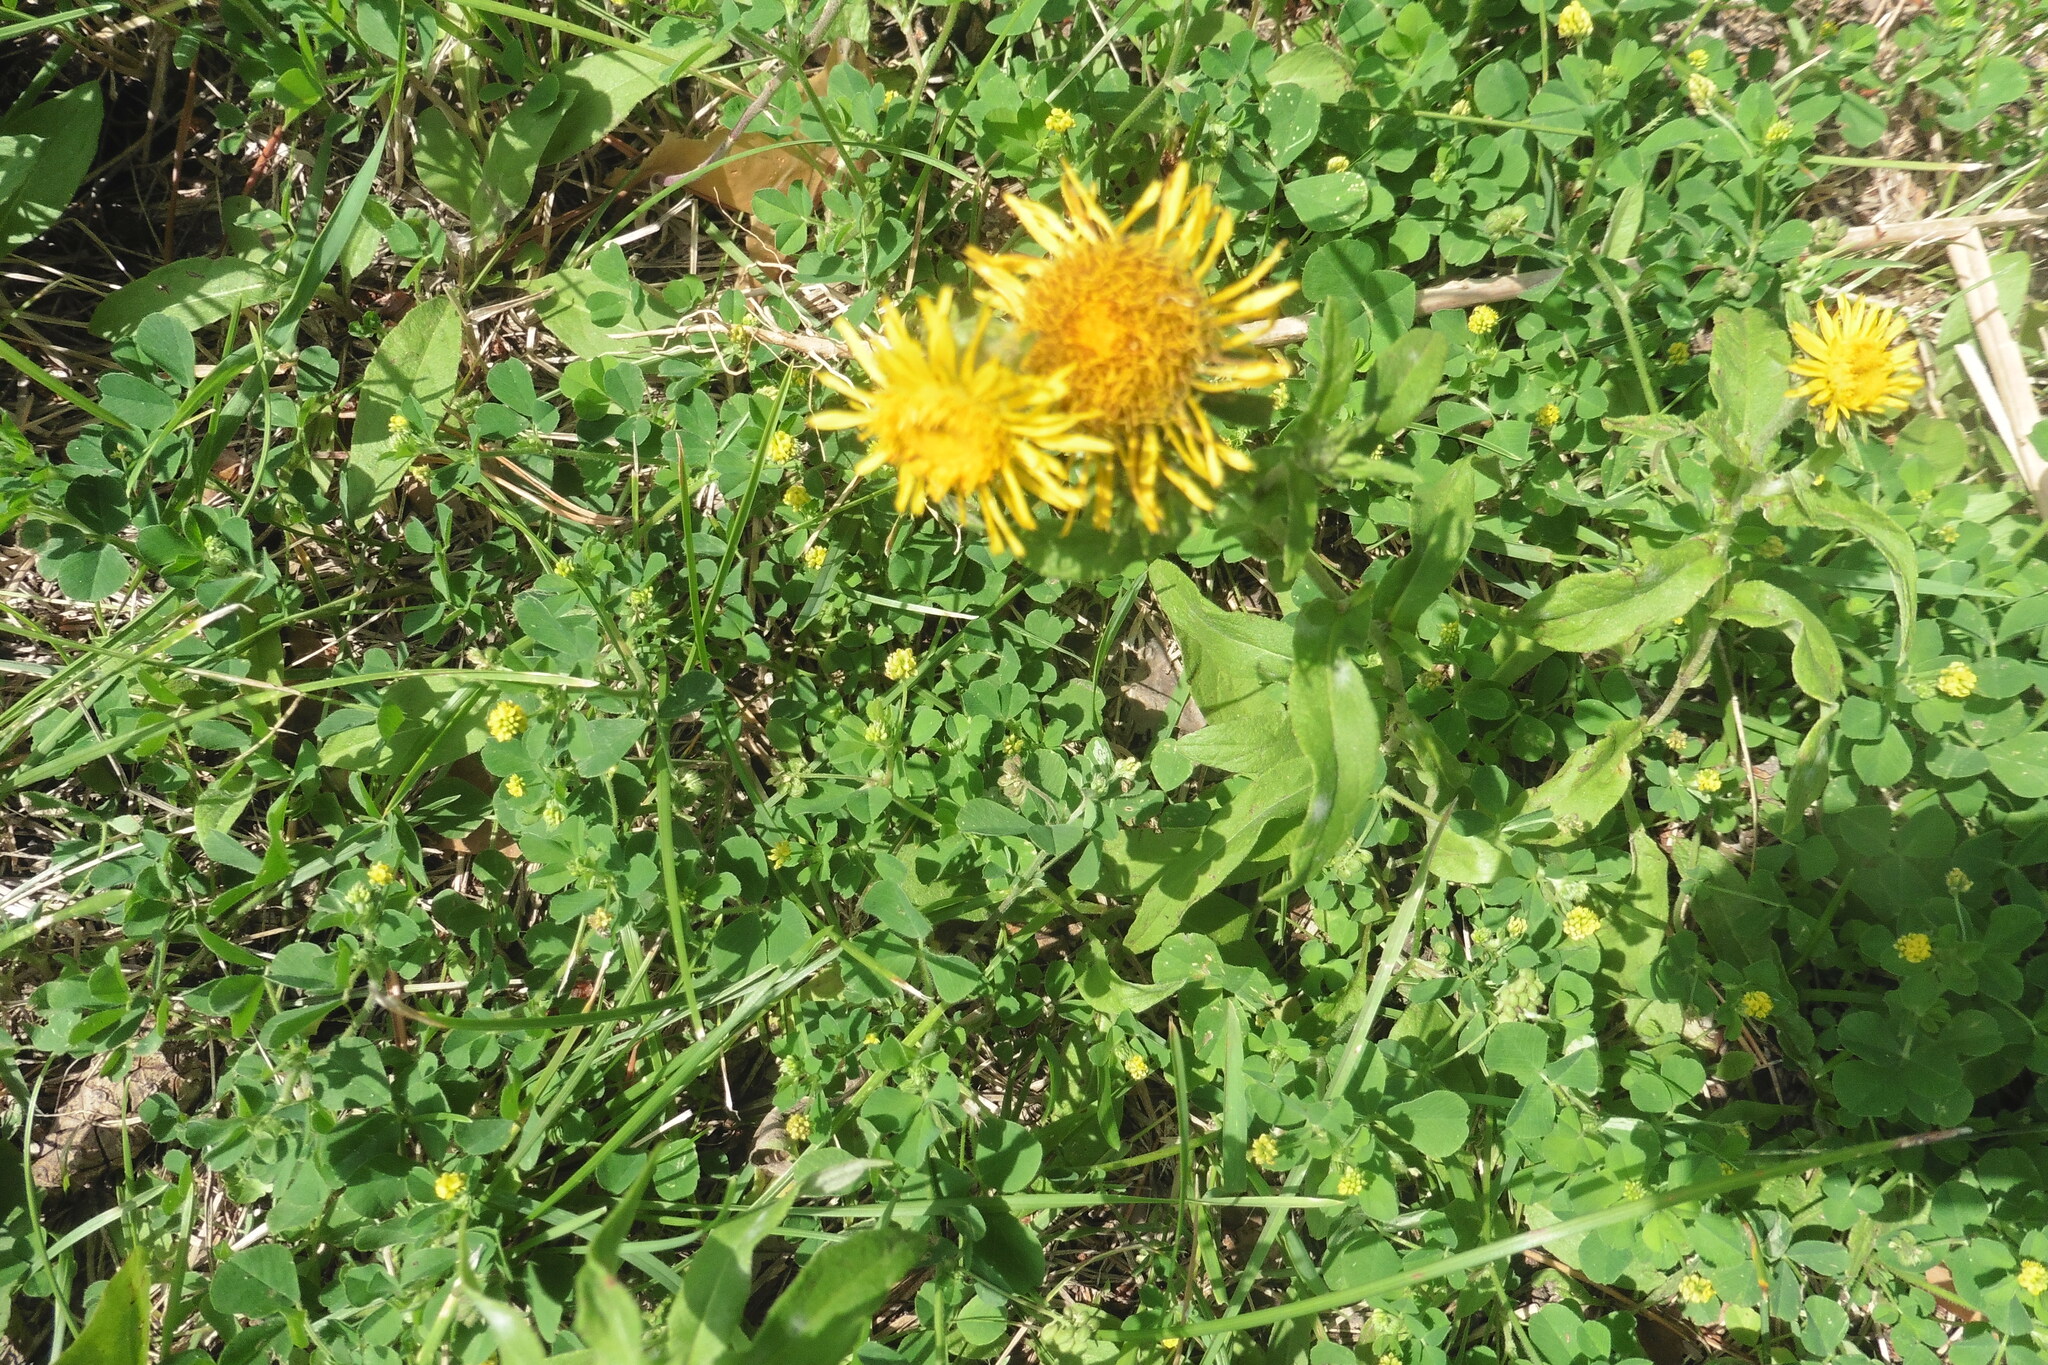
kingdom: Plantae
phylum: Tracheophyta
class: Magnoliopsida
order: Asterales
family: Asteraceae
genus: Pentanema
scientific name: Pentanema britannicum
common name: British elecampane
